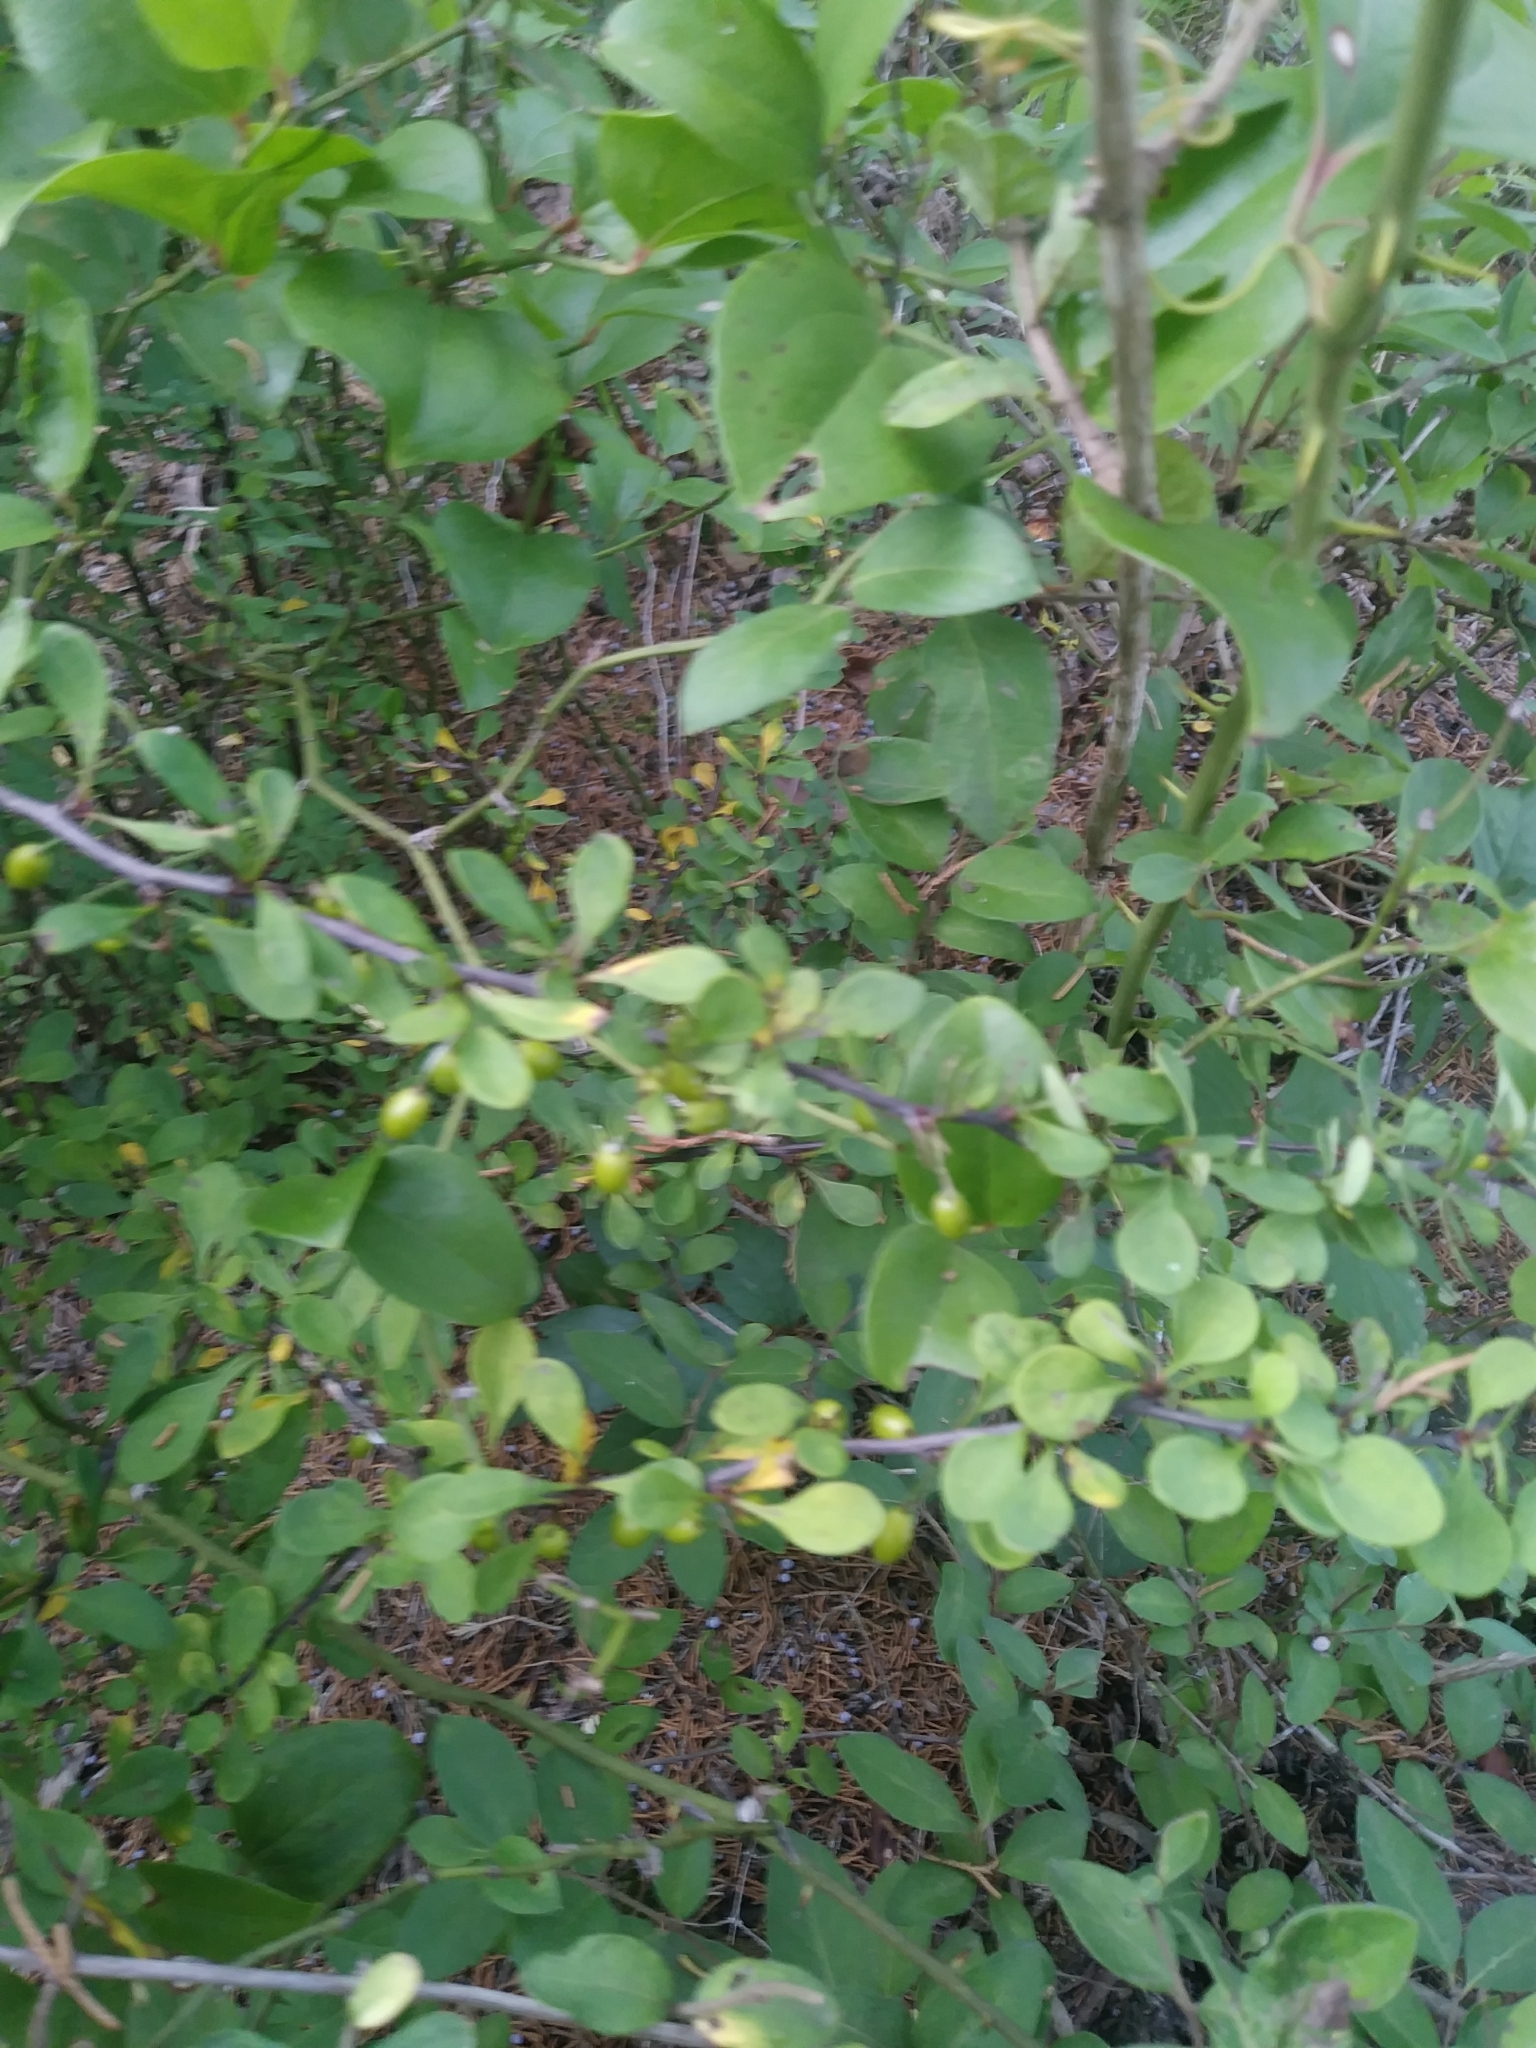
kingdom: Plantae
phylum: Tracheophyta
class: Magnoliopsida
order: Ranunculales
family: Berberidaceae
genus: Berberis
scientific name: Berberis thunbergii
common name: Japanese barberry
